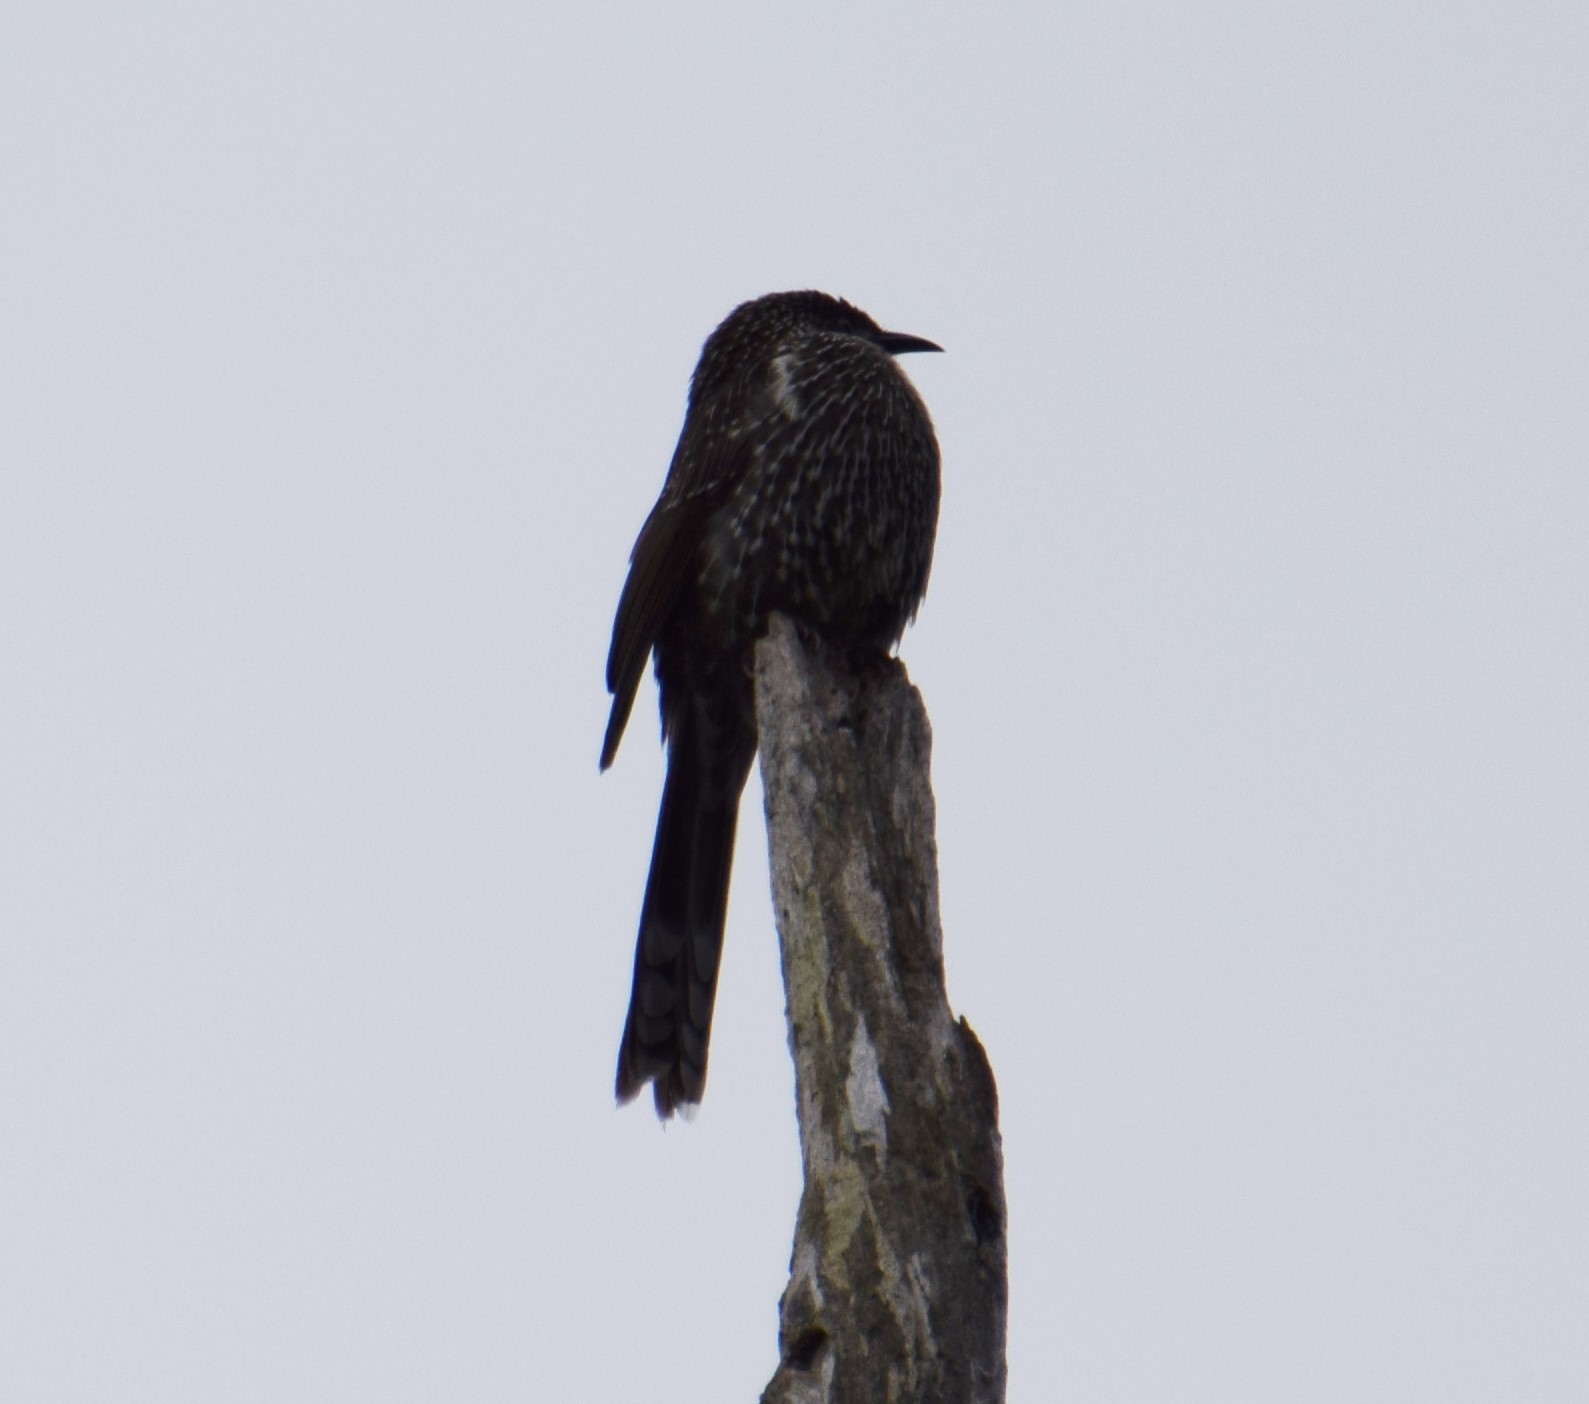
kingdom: Animalia
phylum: Chordata
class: Aves
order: Passeriformes
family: Meliphagidae
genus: Anthochaera
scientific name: Anthochaera chrysoptera
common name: Little wattlebird
